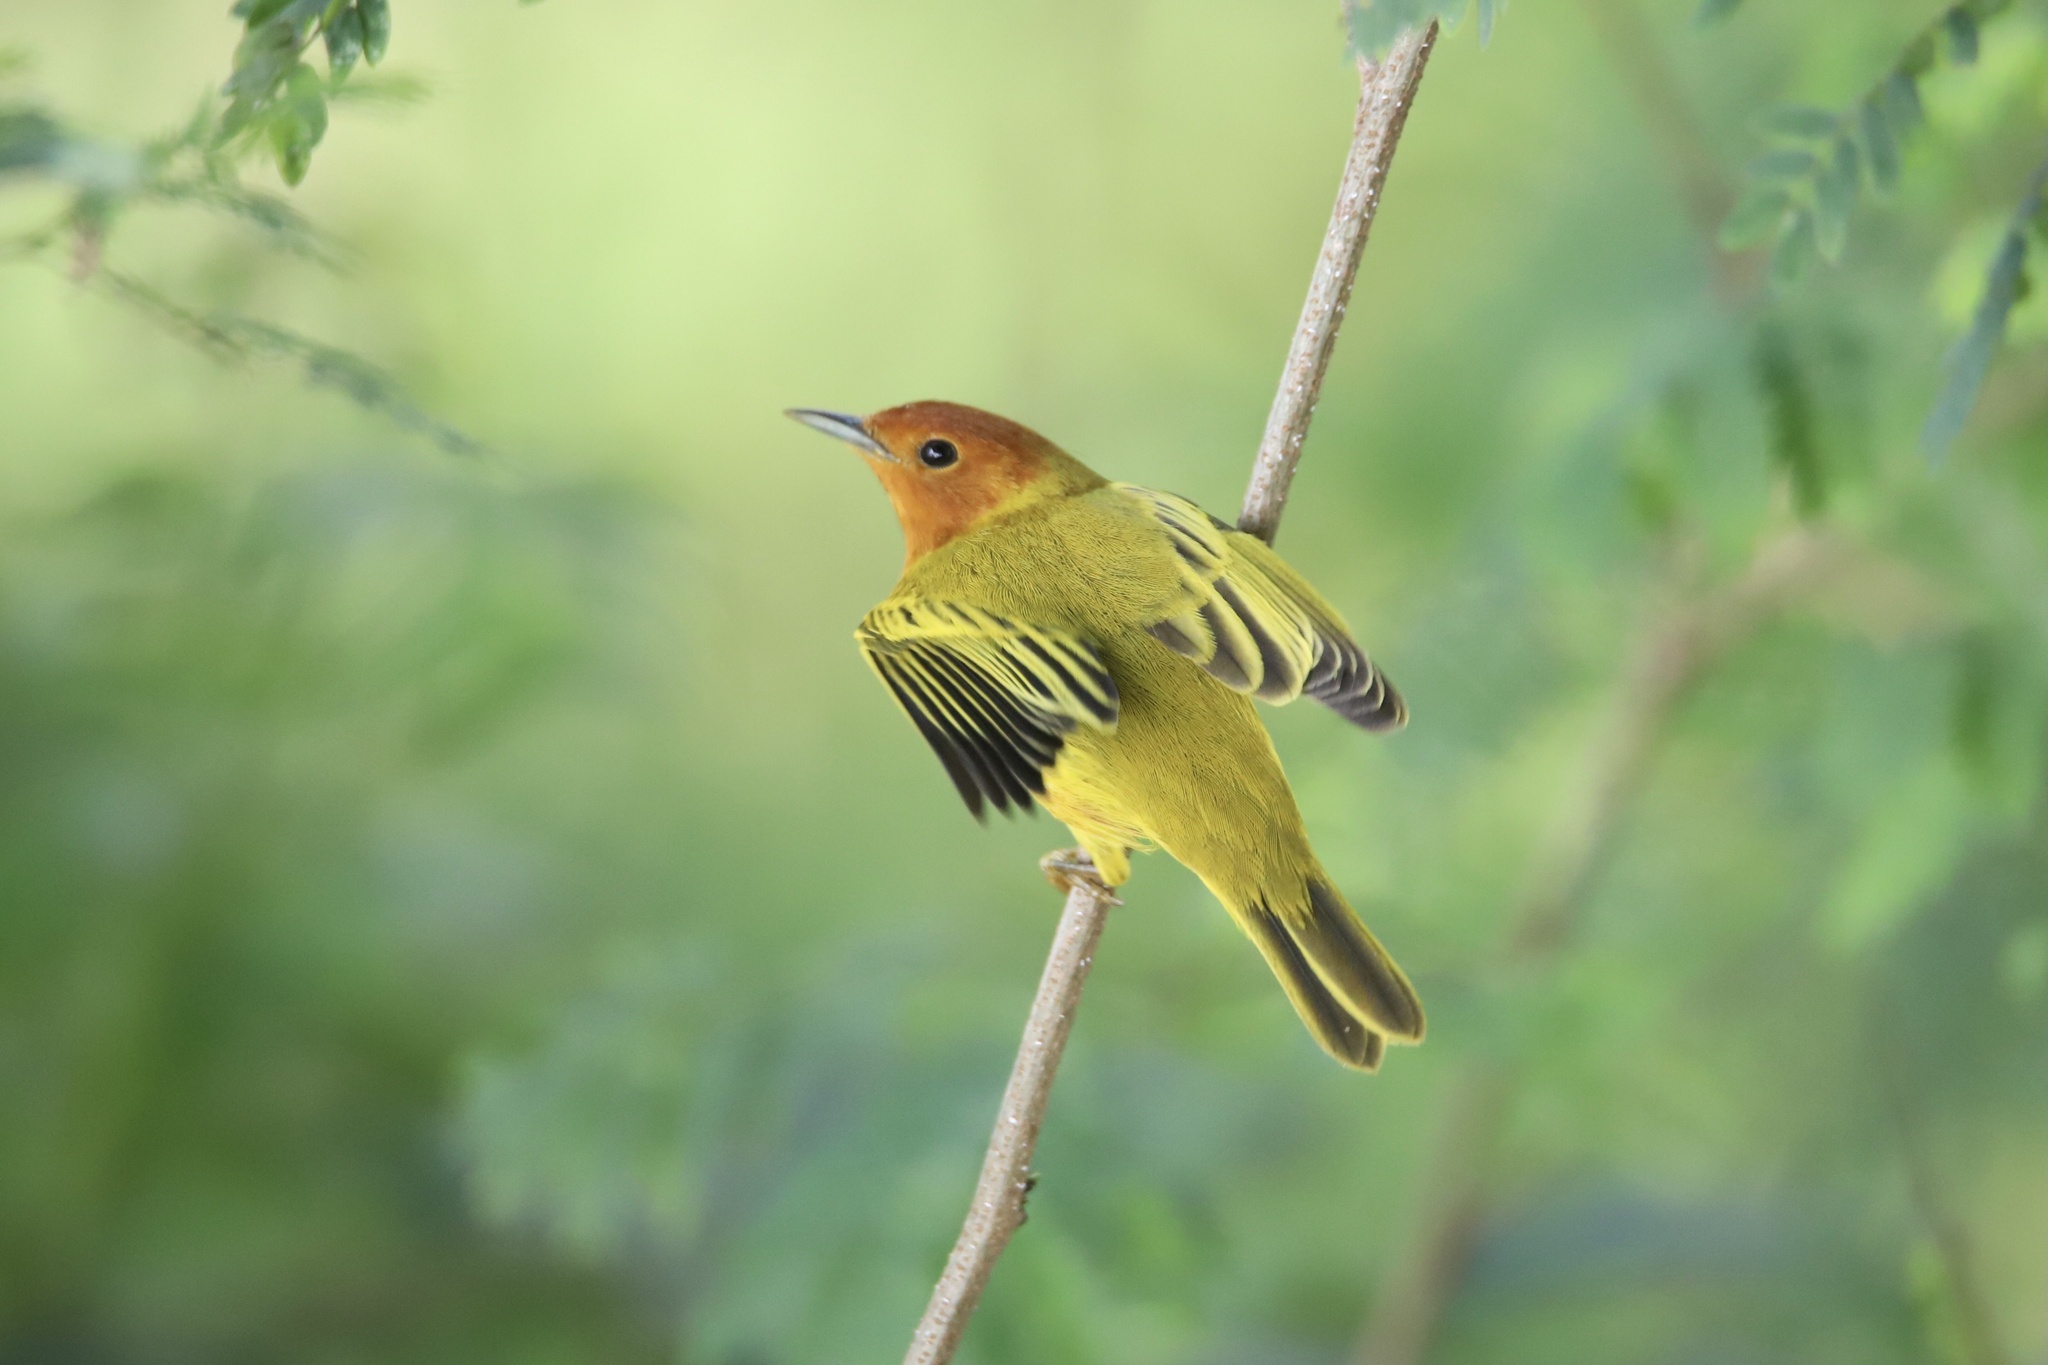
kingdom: Animalia
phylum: Chordata
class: Aves
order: Passeriformes
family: Parulidae
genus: Setophaga
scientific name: Setophaga petechia
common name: Yellow warbler
